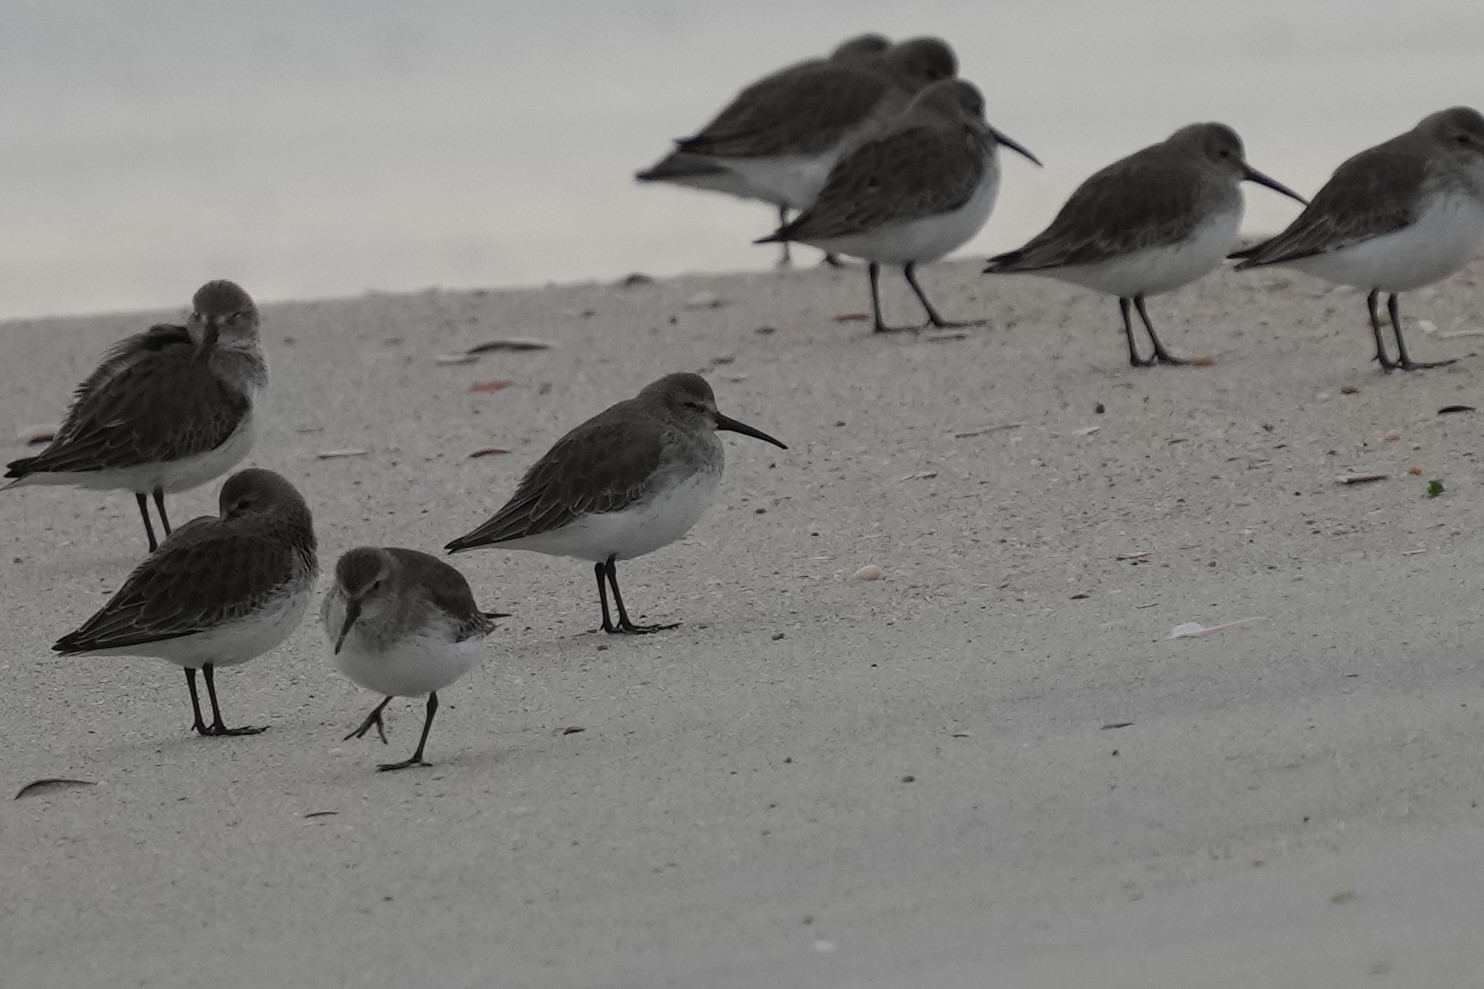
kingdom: Animalia
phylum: Chordata
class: Aves
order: Charadriiformes
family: Scolopacidae
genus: Calidris
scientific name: Calidris alpina
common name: Dunlin
